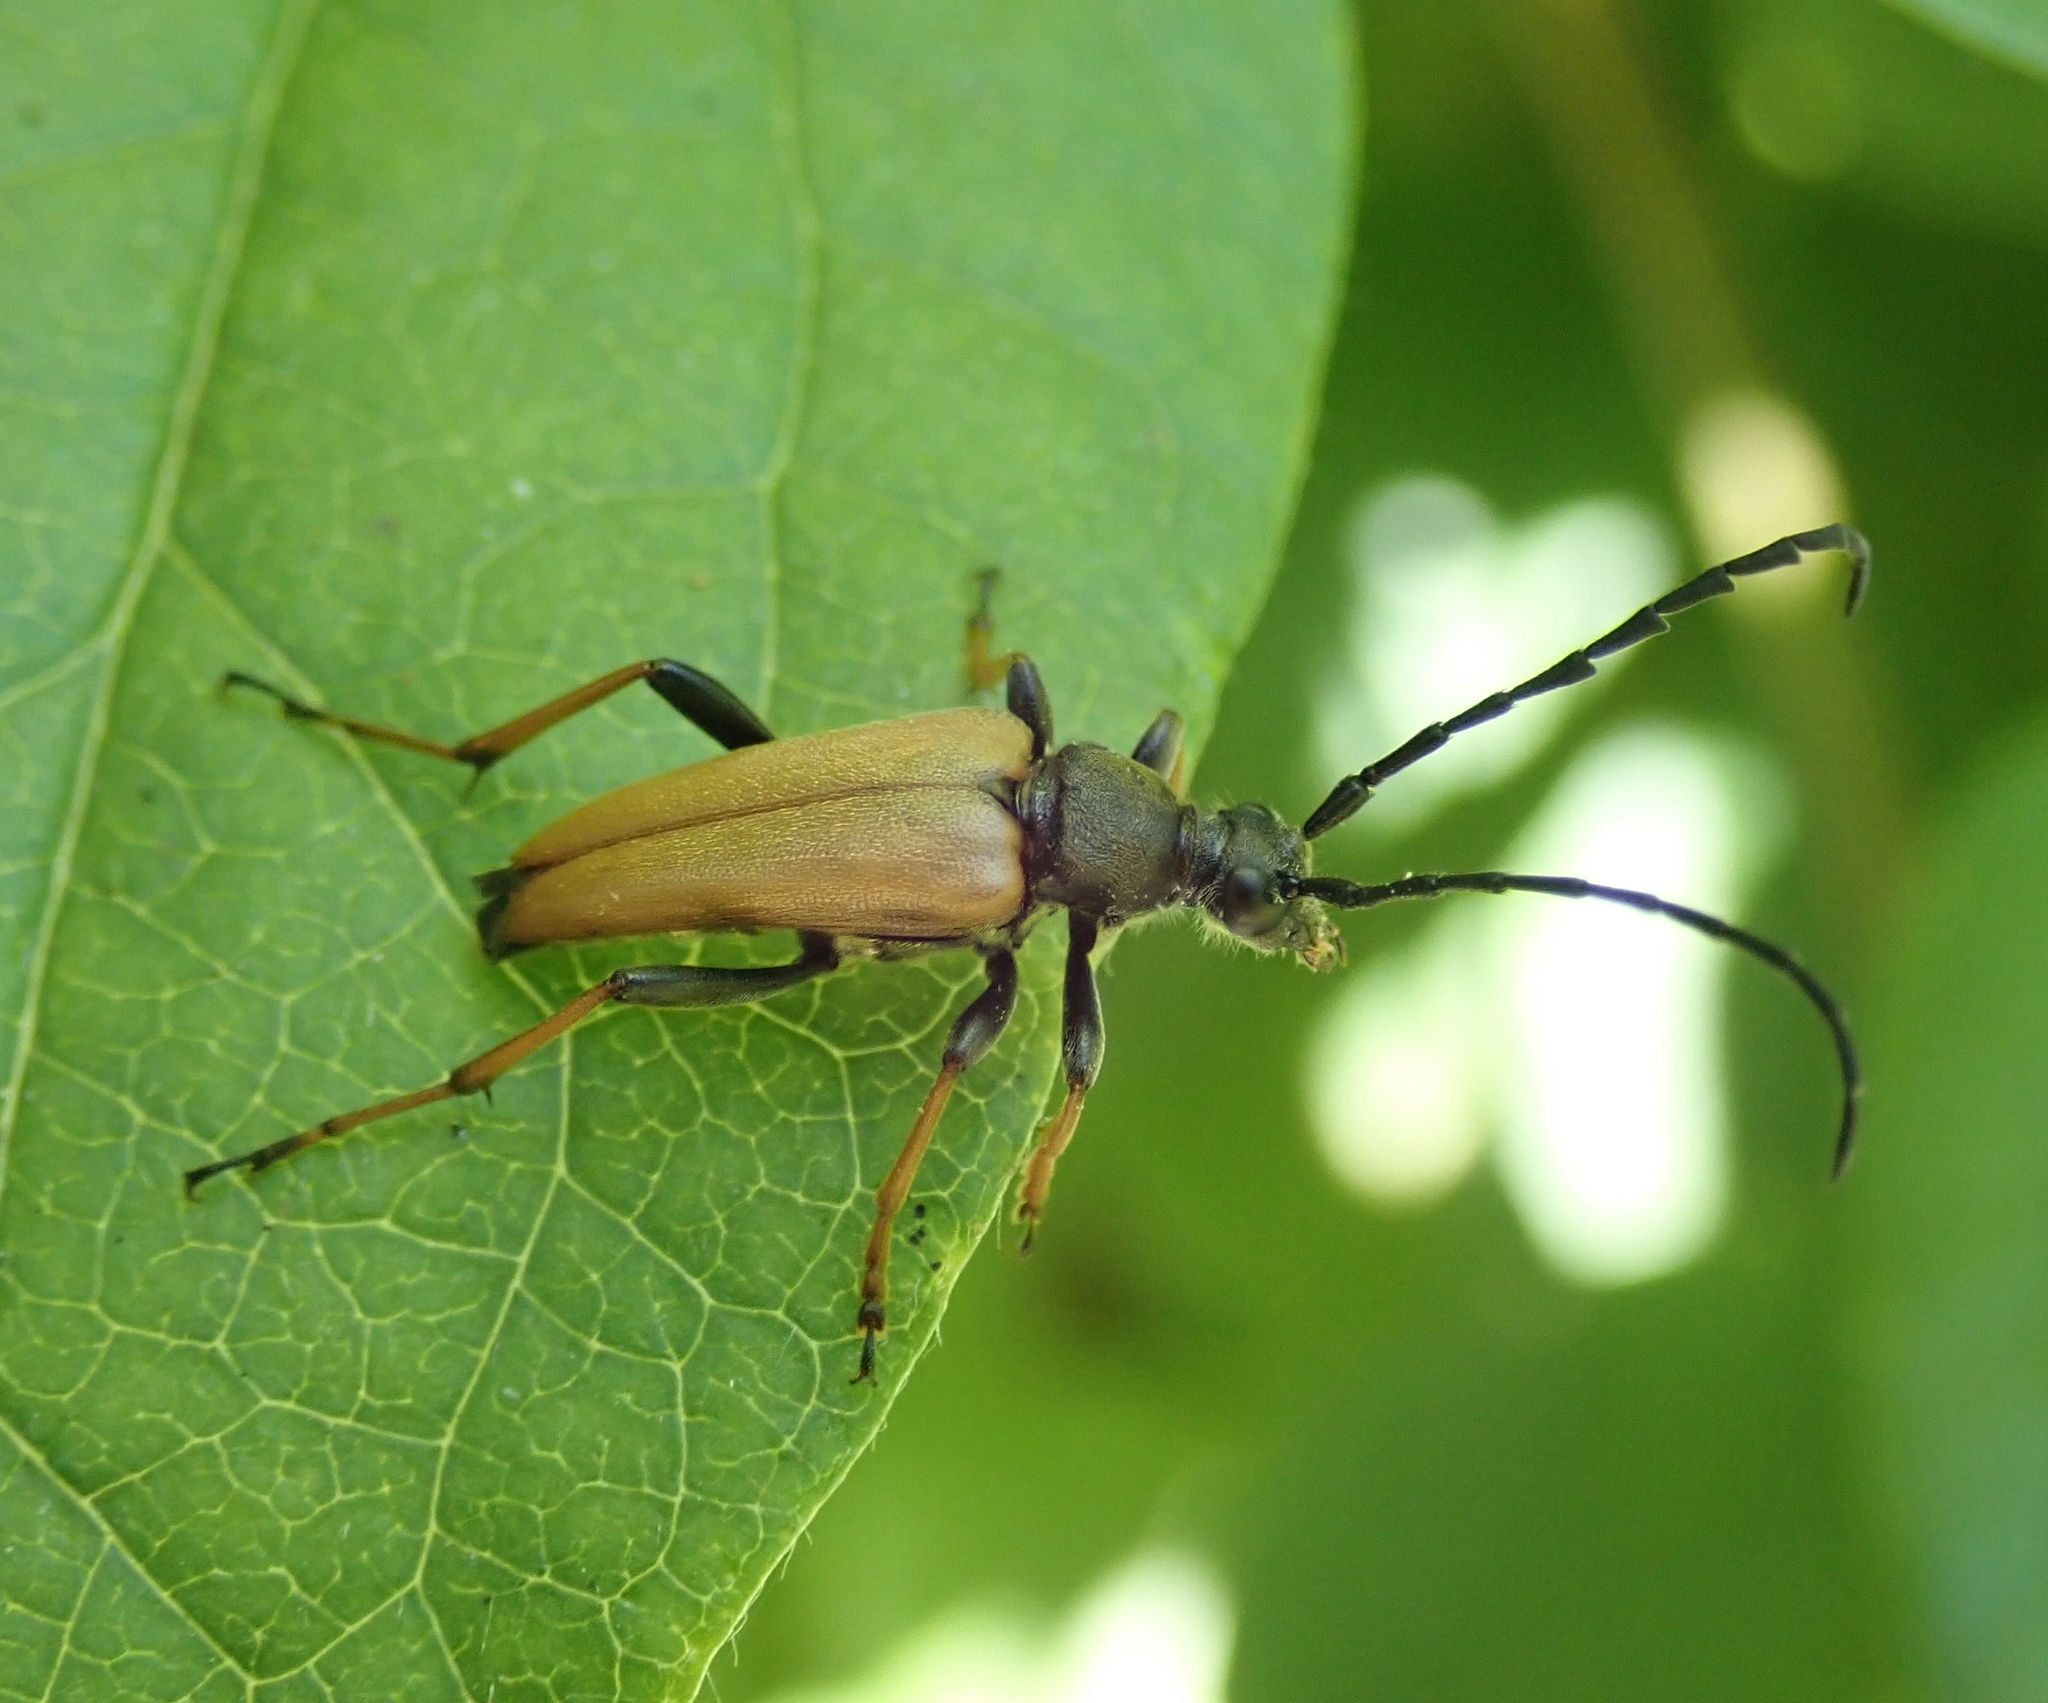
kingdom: Animalia
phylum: Arthropoda
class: Insecta
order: Coleoptera
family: Cerambycidae
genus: Stictoleptura
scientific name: Stictoleptura rubra
